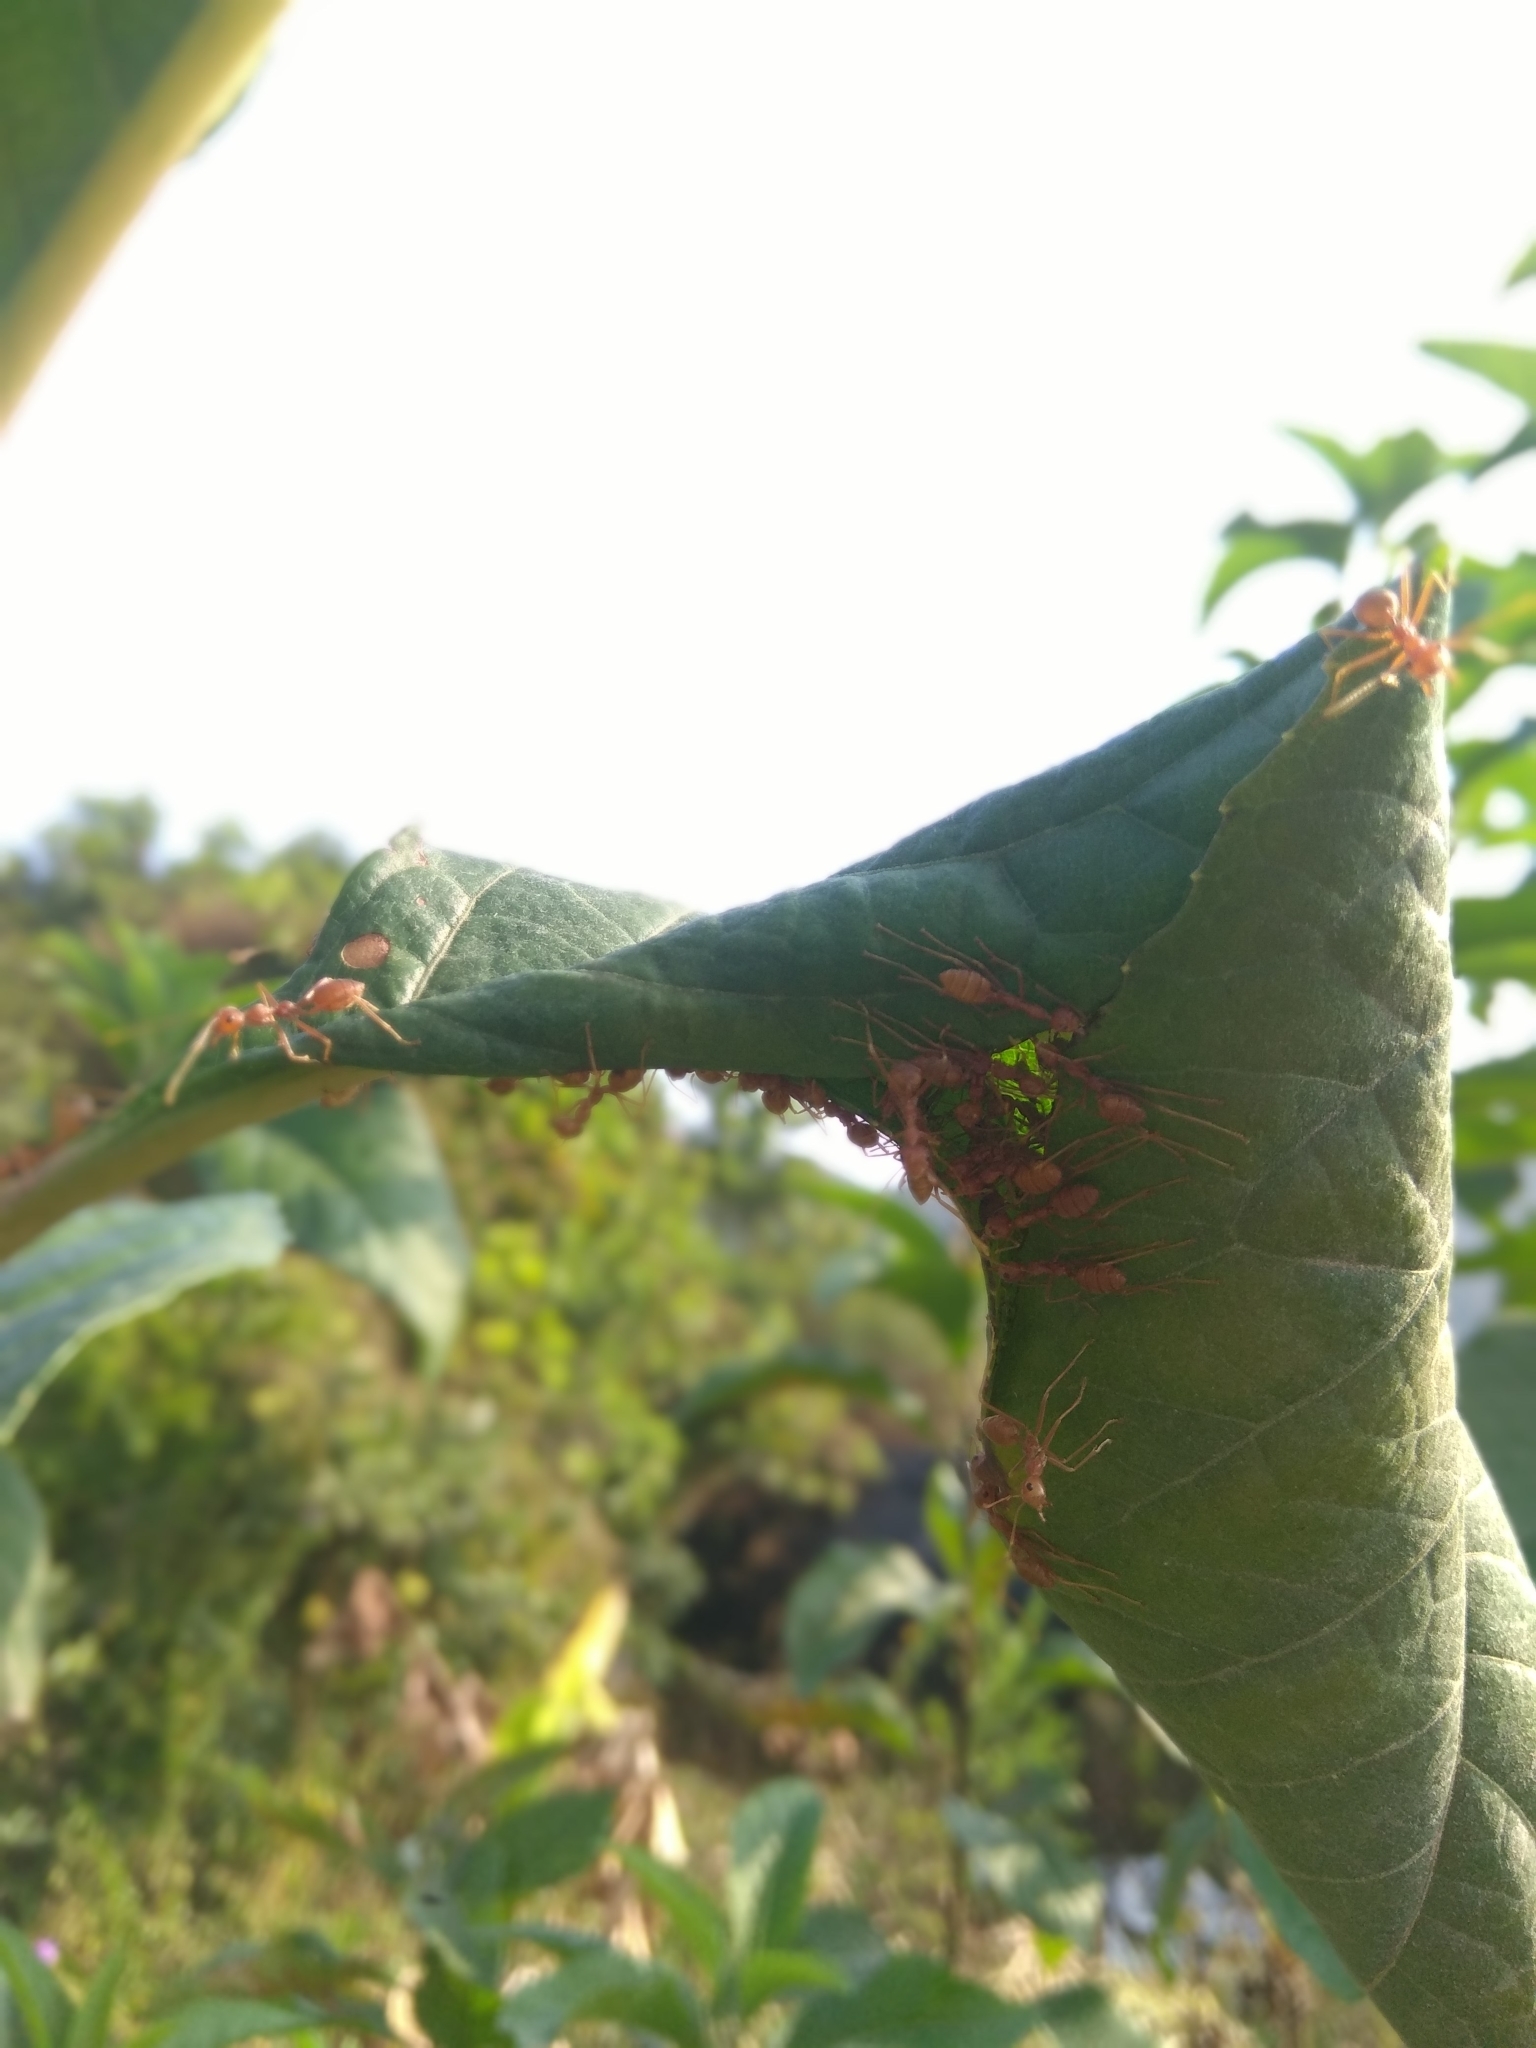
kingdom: Animalia
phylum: Arthropoda
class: Insecta
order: Hymenoptera
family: Formicidae
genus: Oecophylla
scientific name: Oecophylla smaragdina
